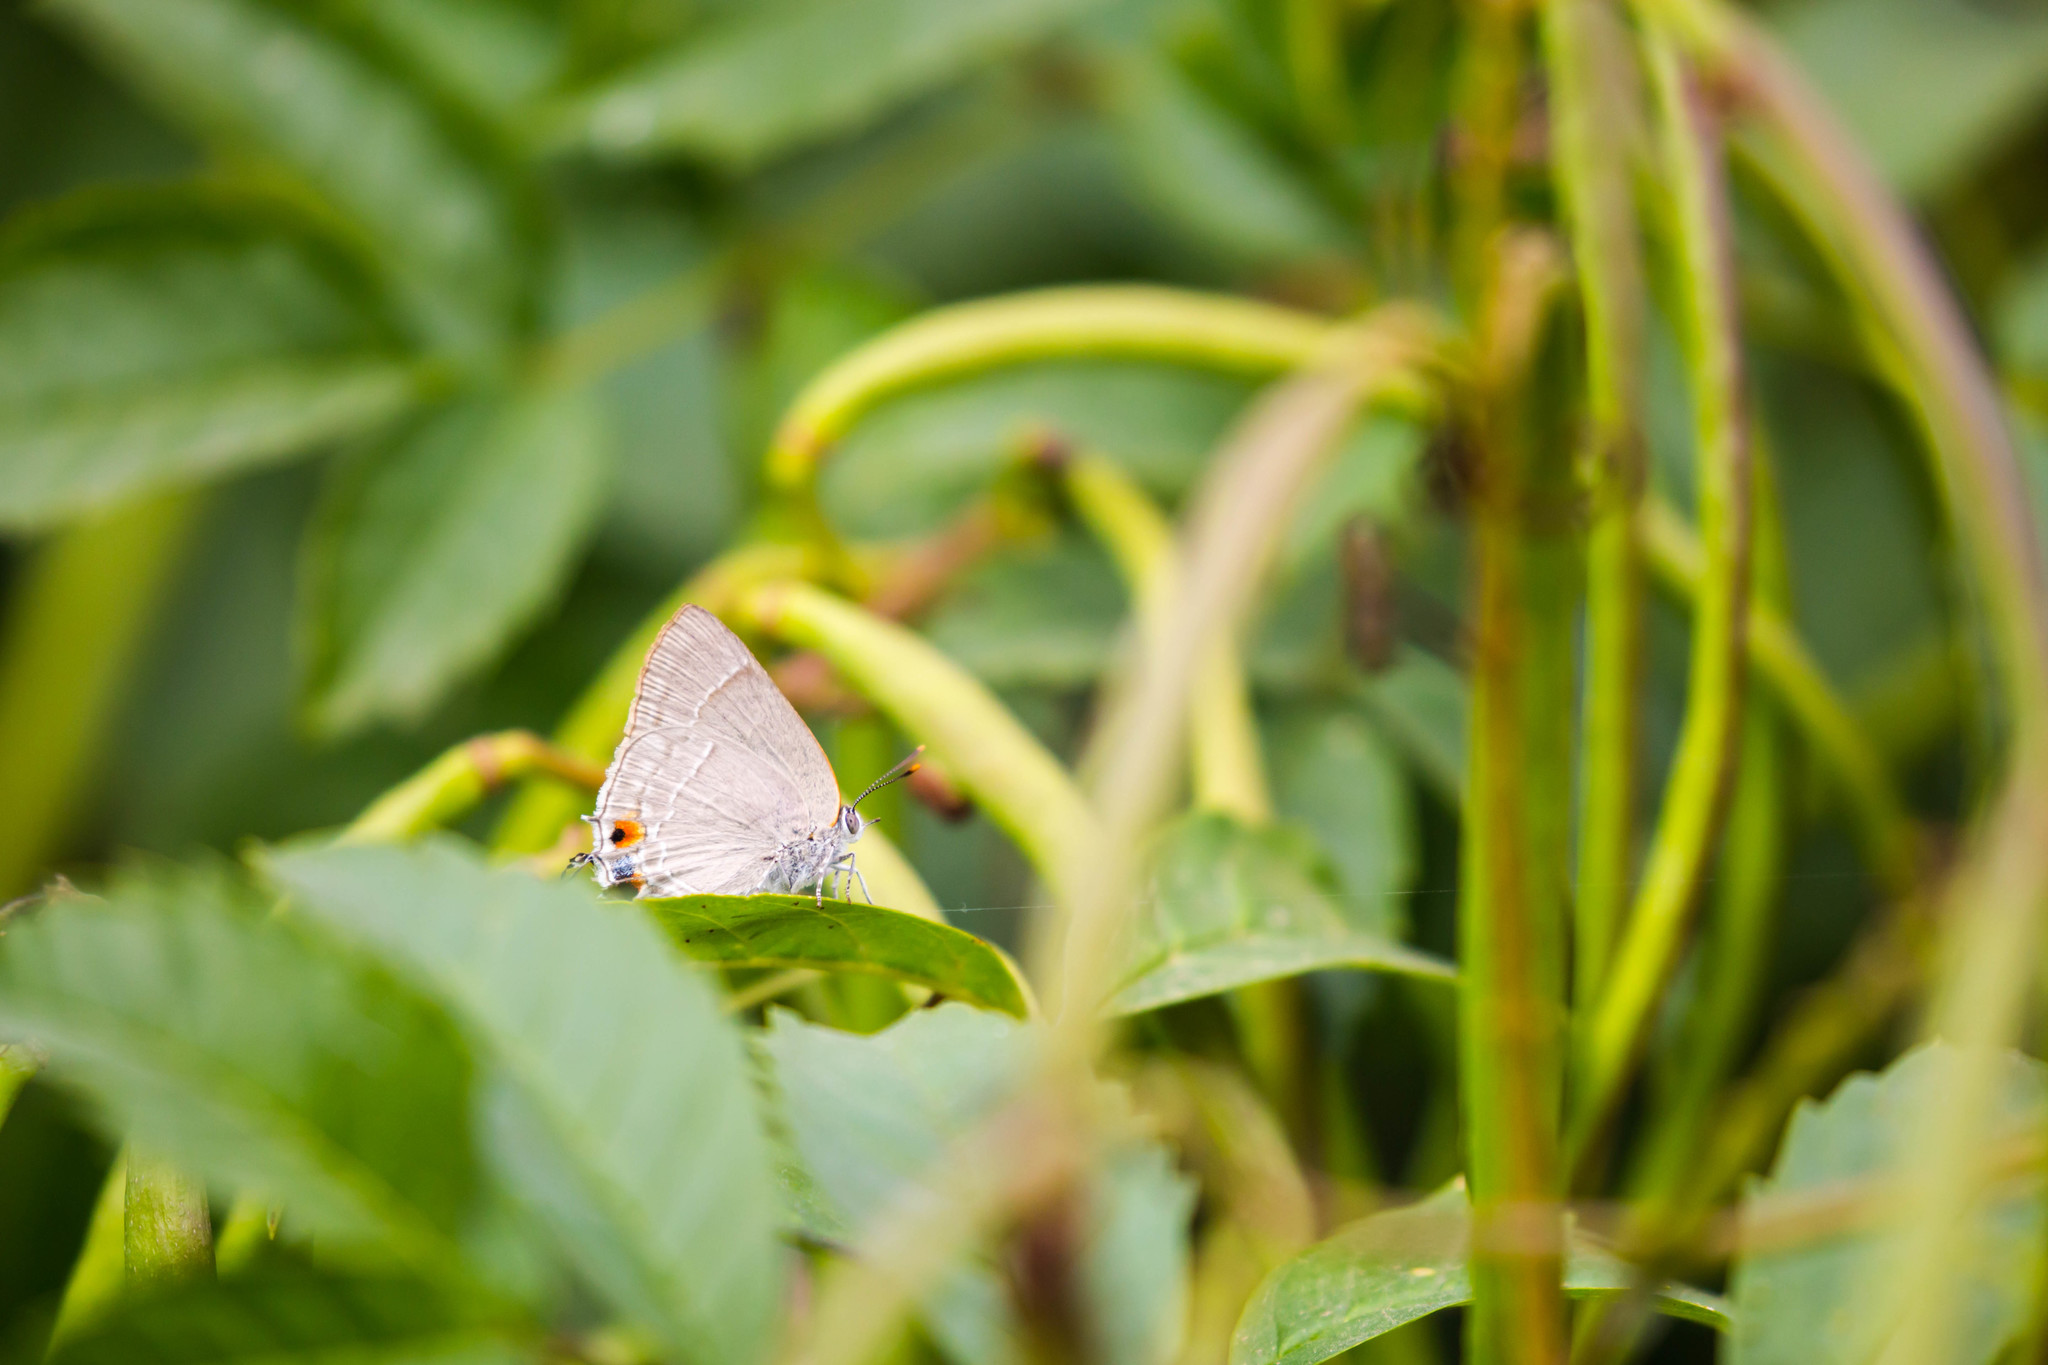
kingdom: Animalia
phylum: Arthropoda
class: Insecta
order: Lepidoptera
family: Lycaenidae
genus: Thecla
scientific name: Thecla marius
